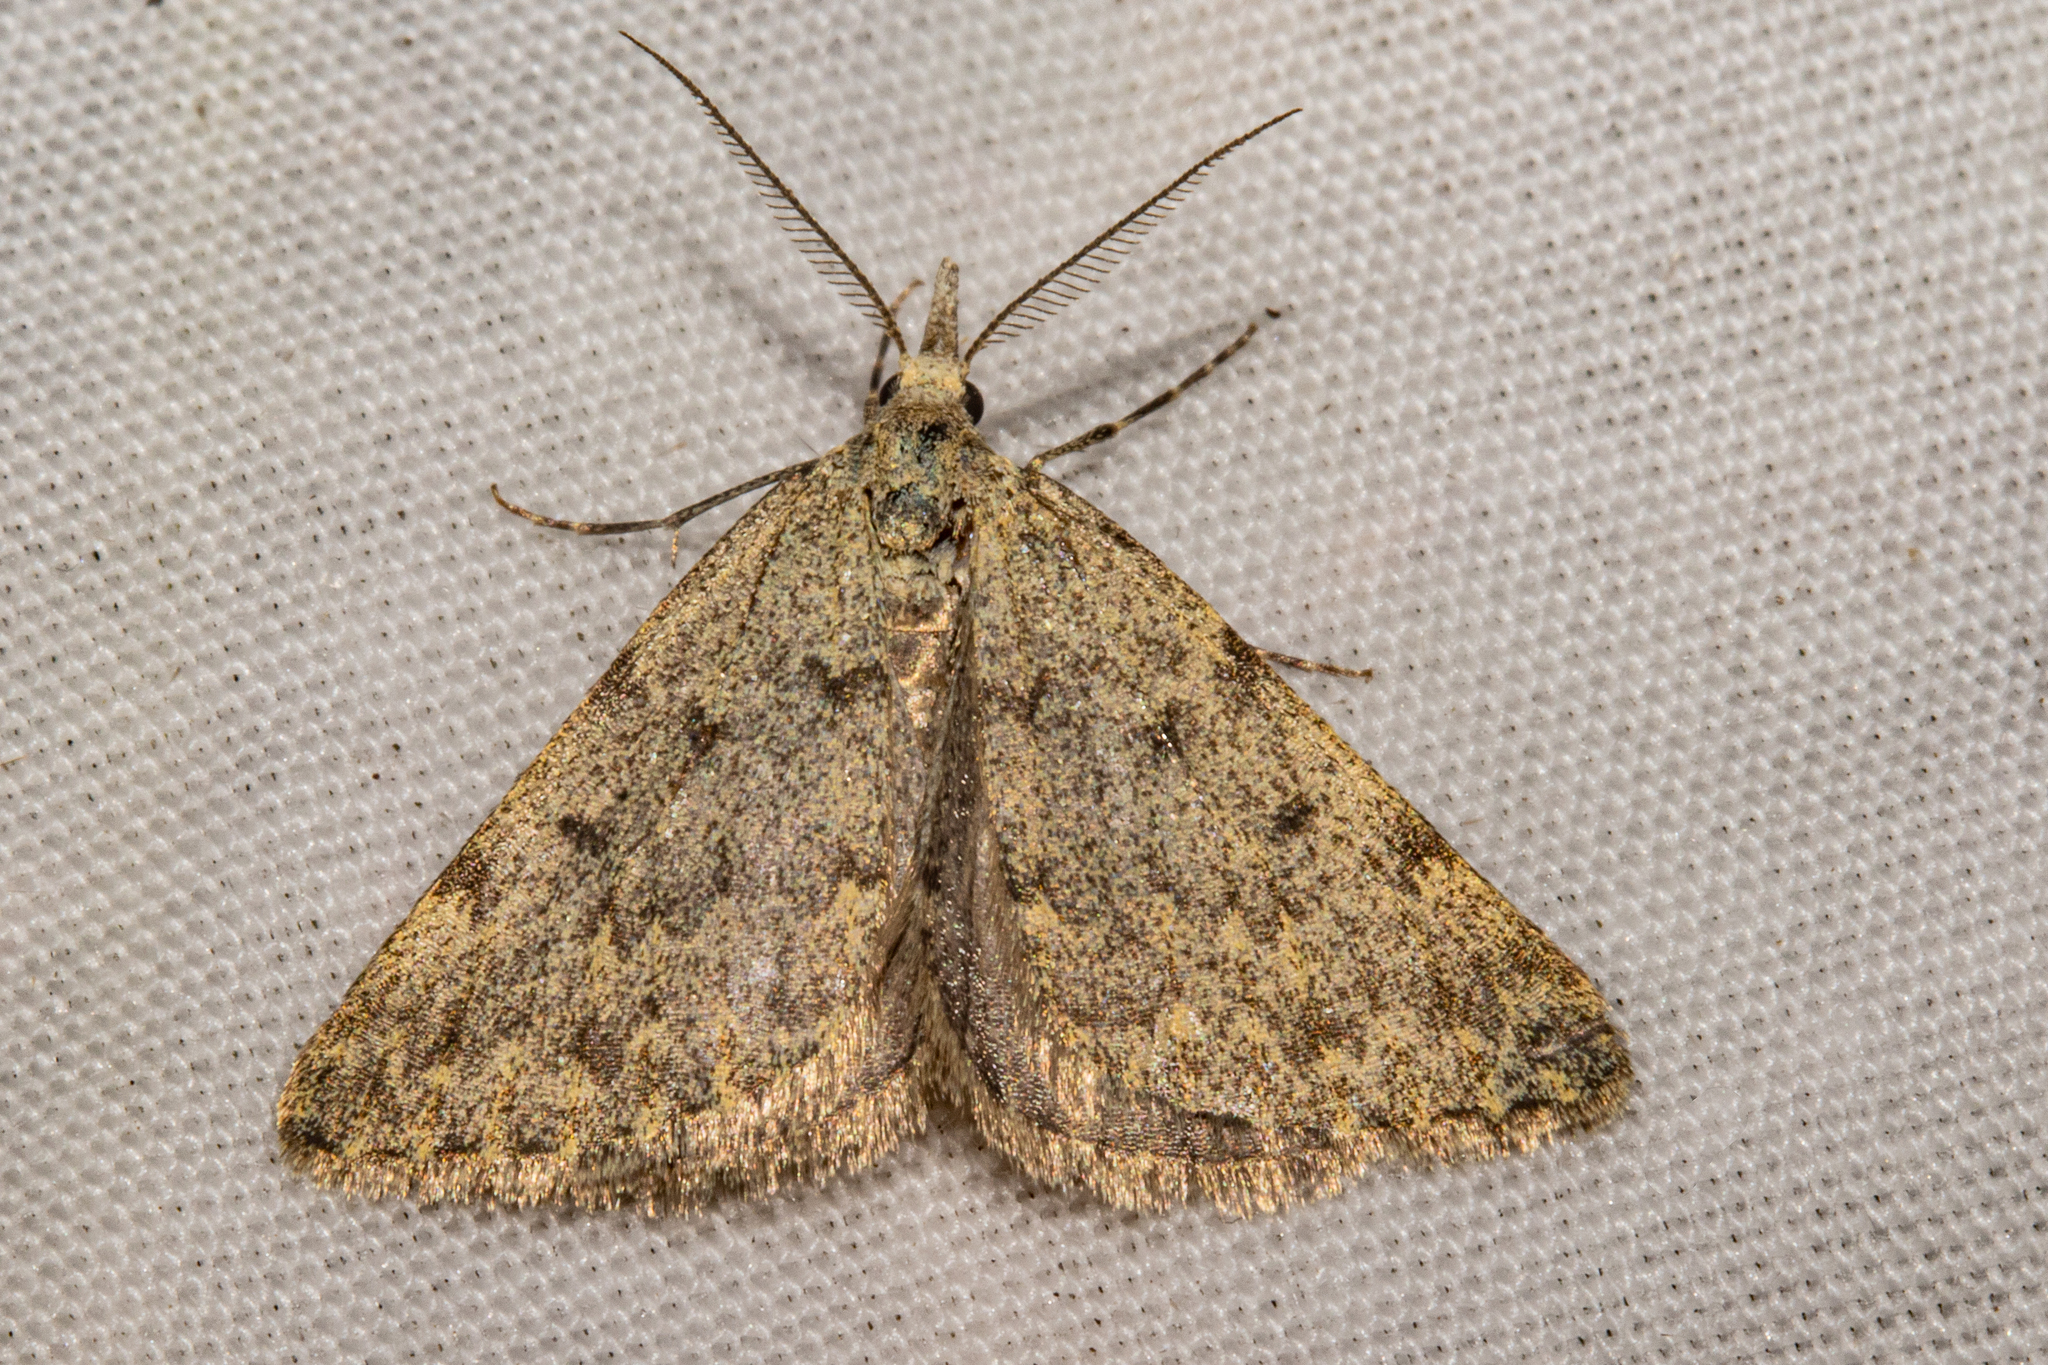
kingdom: Animalia
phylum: Arthropoda
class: Insecta
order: Lepidoptera
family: Geometridae
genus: Dichromodes
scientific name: Dichromodes sphaeriata
